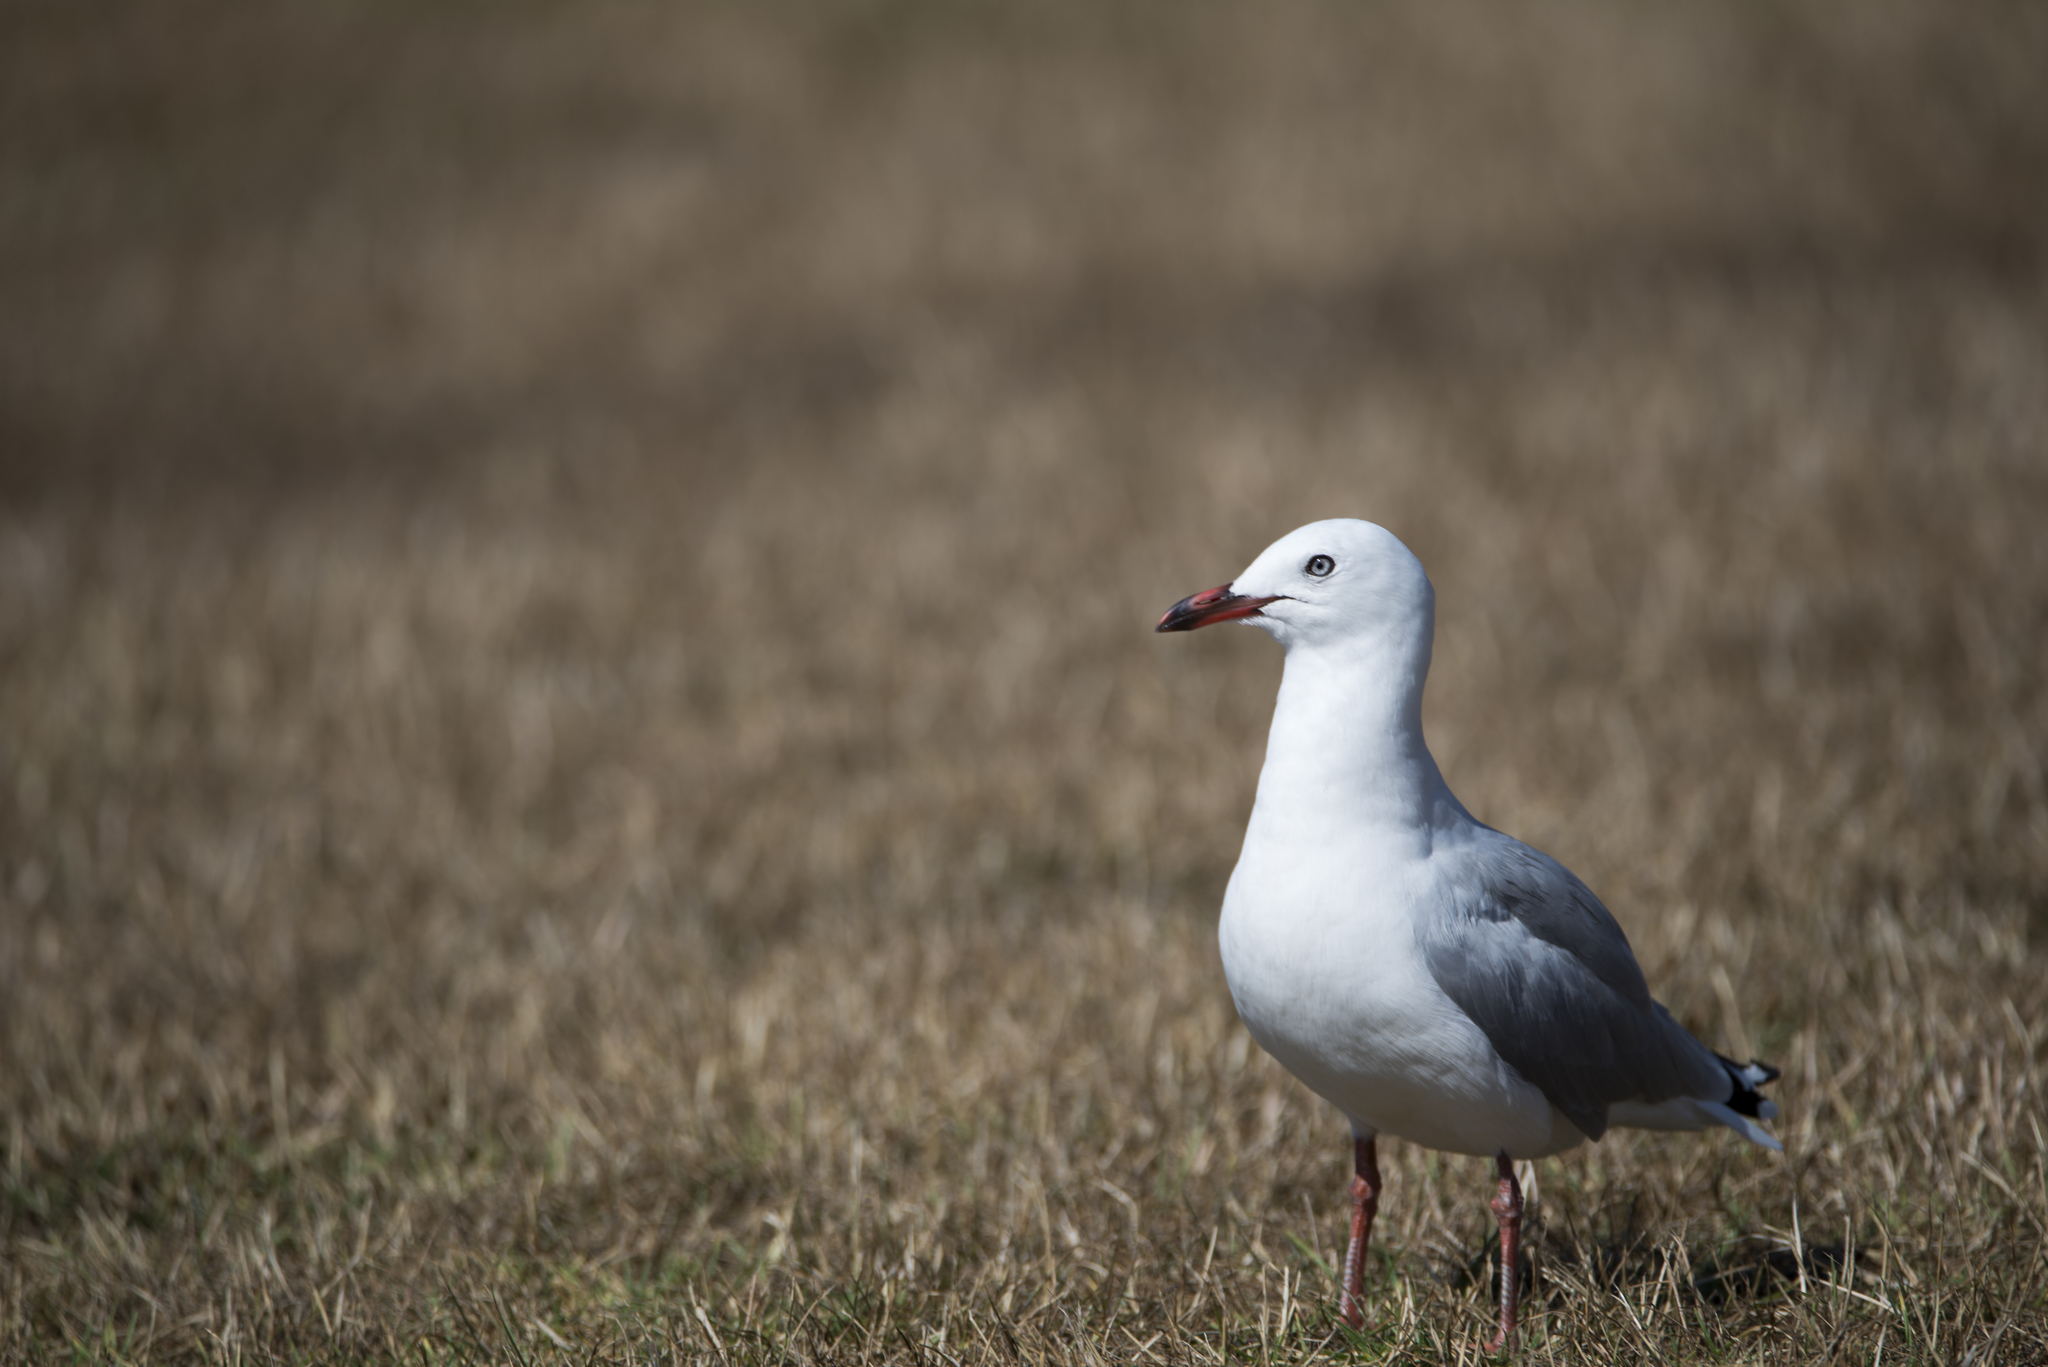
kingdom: Animalia
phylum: Chordata
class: Aves
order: Charadriiformes
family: Laridae
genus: Chroicocephalus
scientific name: Chroicocephalus novaehollandiae
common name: Silver gull
